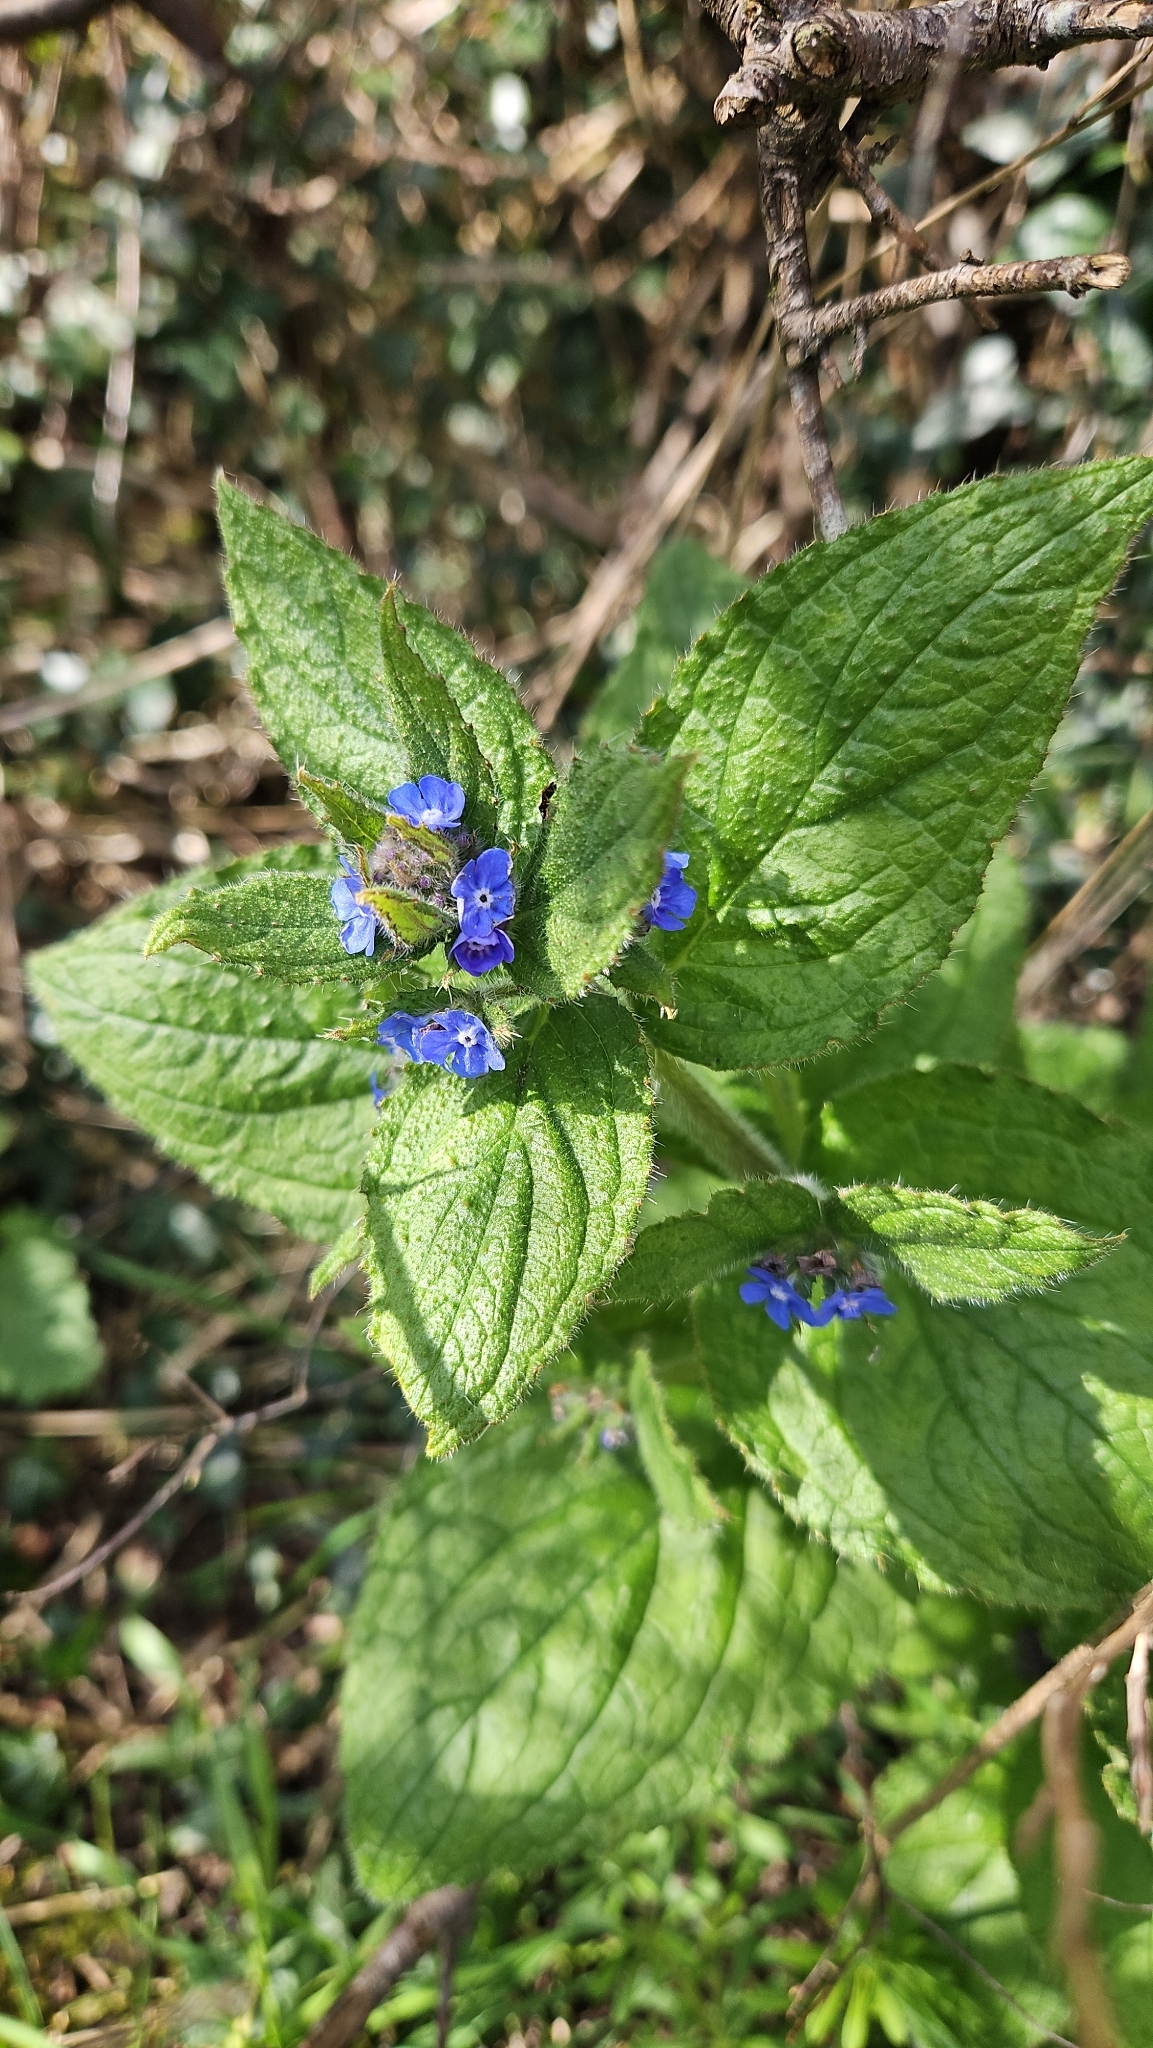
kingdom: Plantae
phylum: Tracheophyta
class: Magnoliopsida
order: Boraginales
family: Boraginaceae
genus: Pentaglottis
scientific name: Pentaglottis sempervirens
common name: Green alkanet
